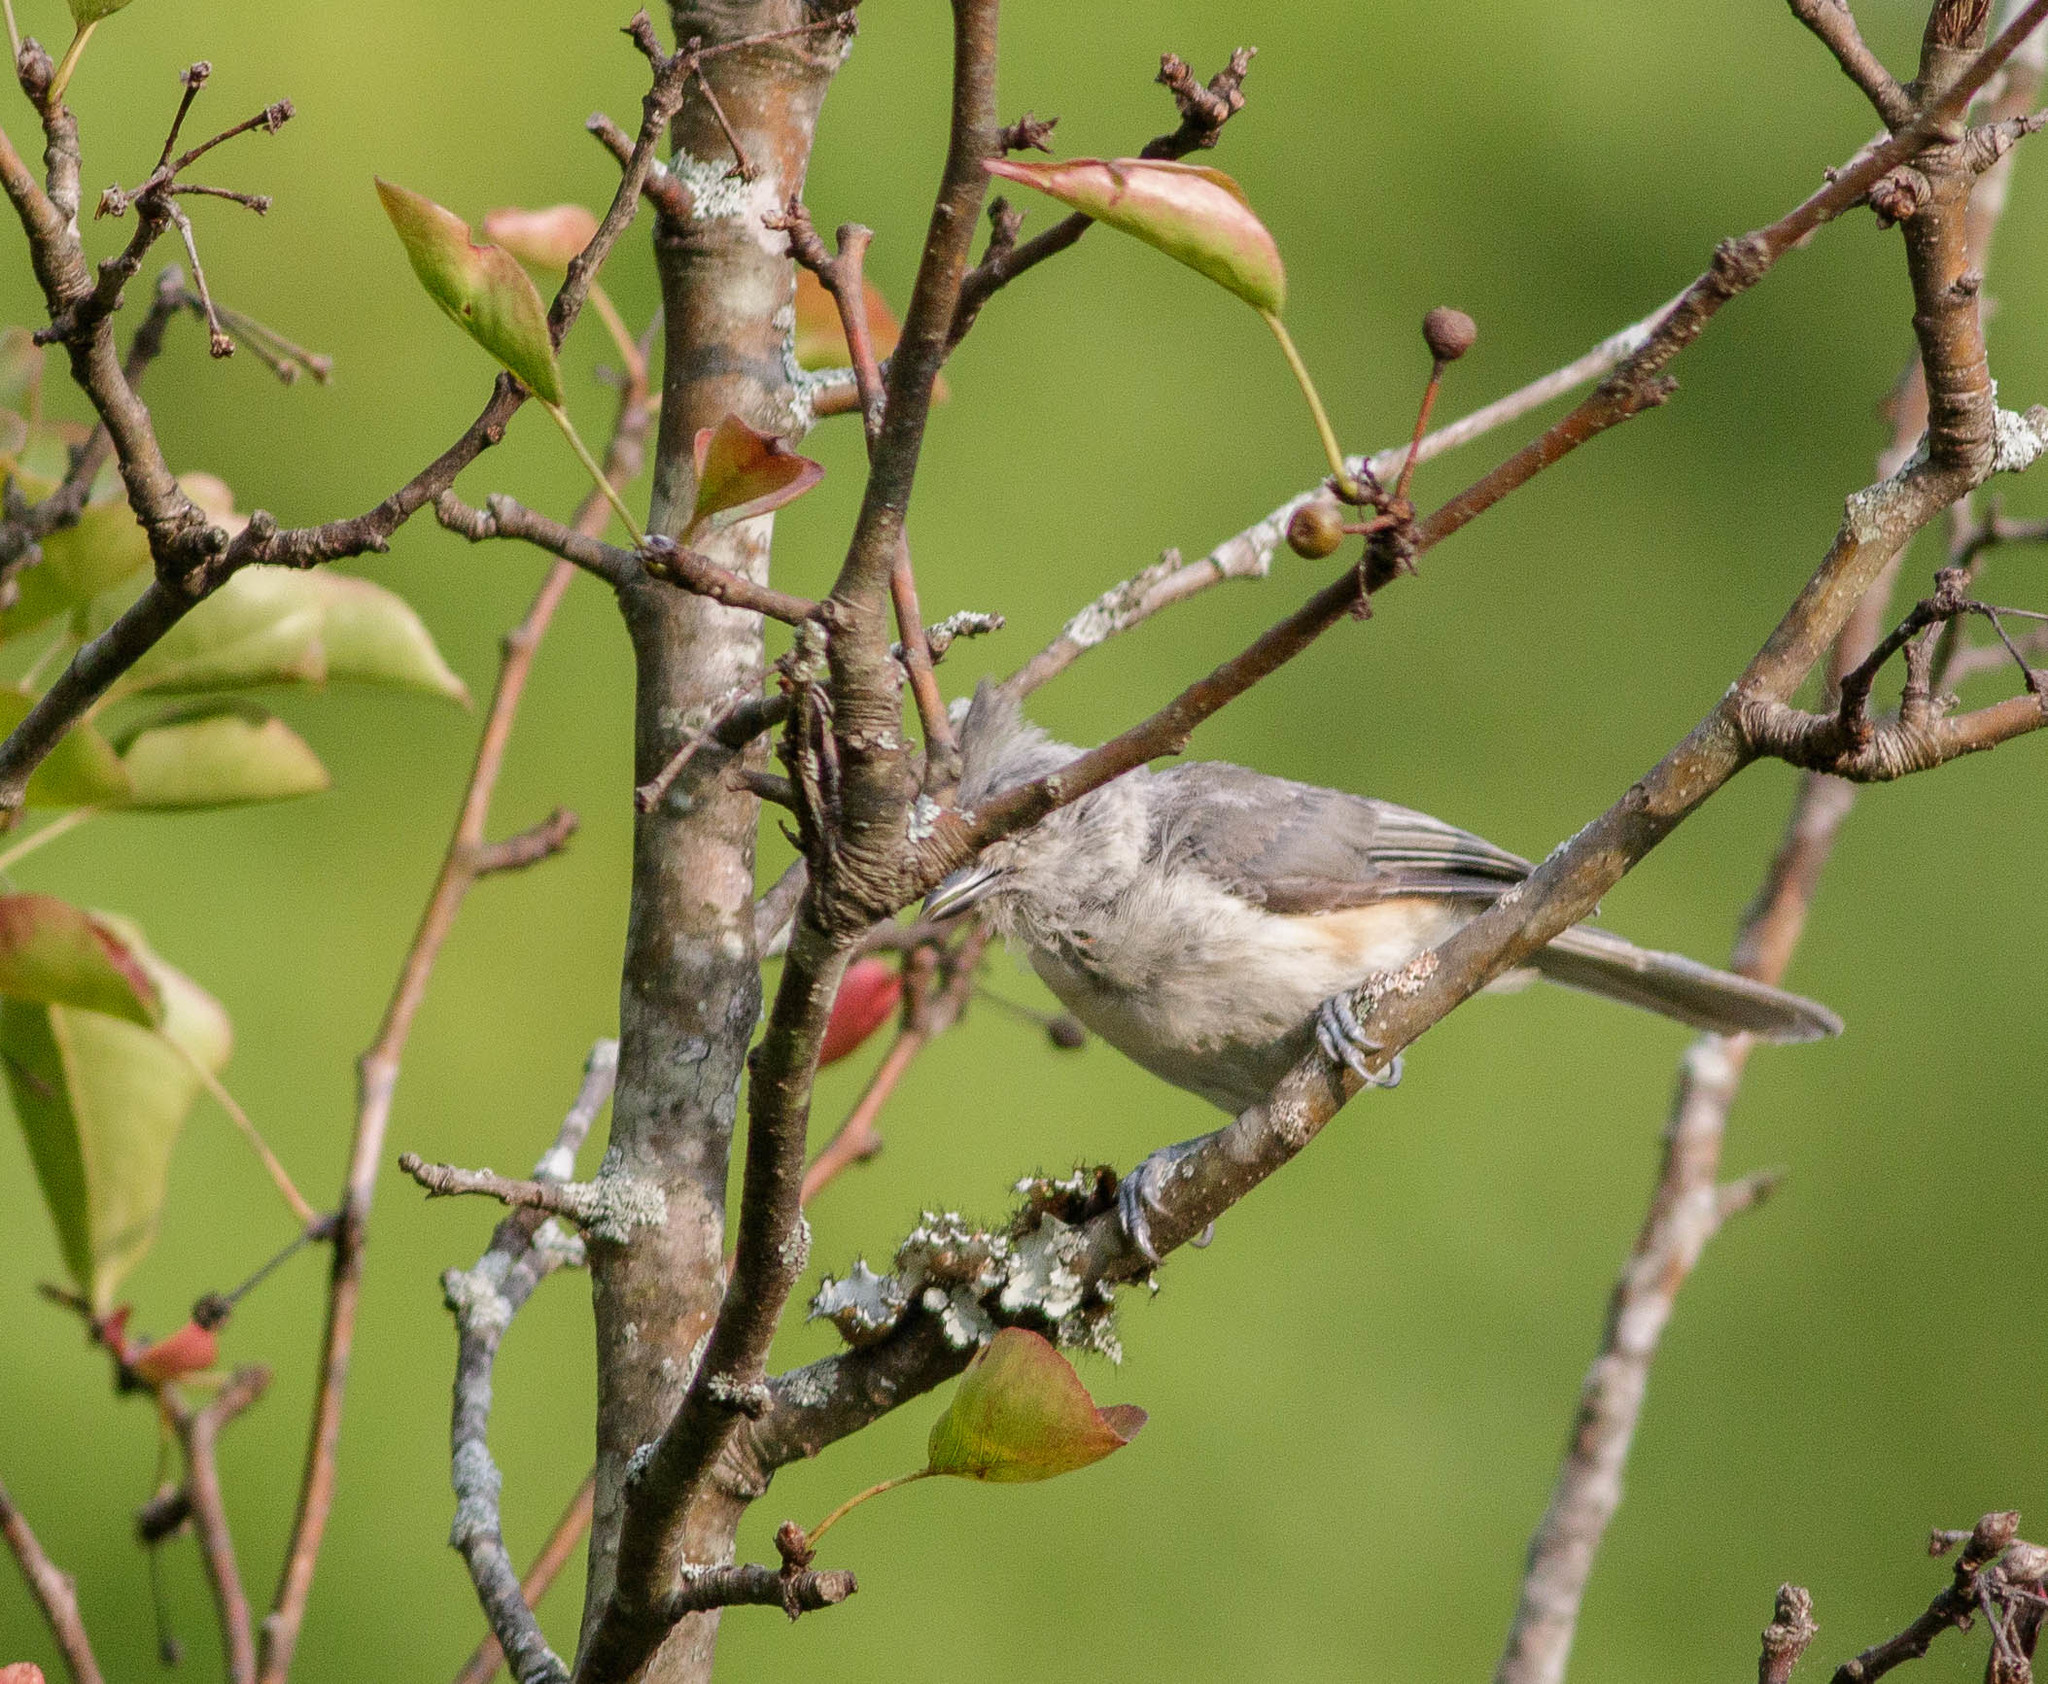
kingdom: Animalia
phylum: Chordata
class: Aves
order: Passeriformes
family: Paridae
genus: Baeolophus
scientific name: Baeolophus bicolor
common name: Tufted titmouse
